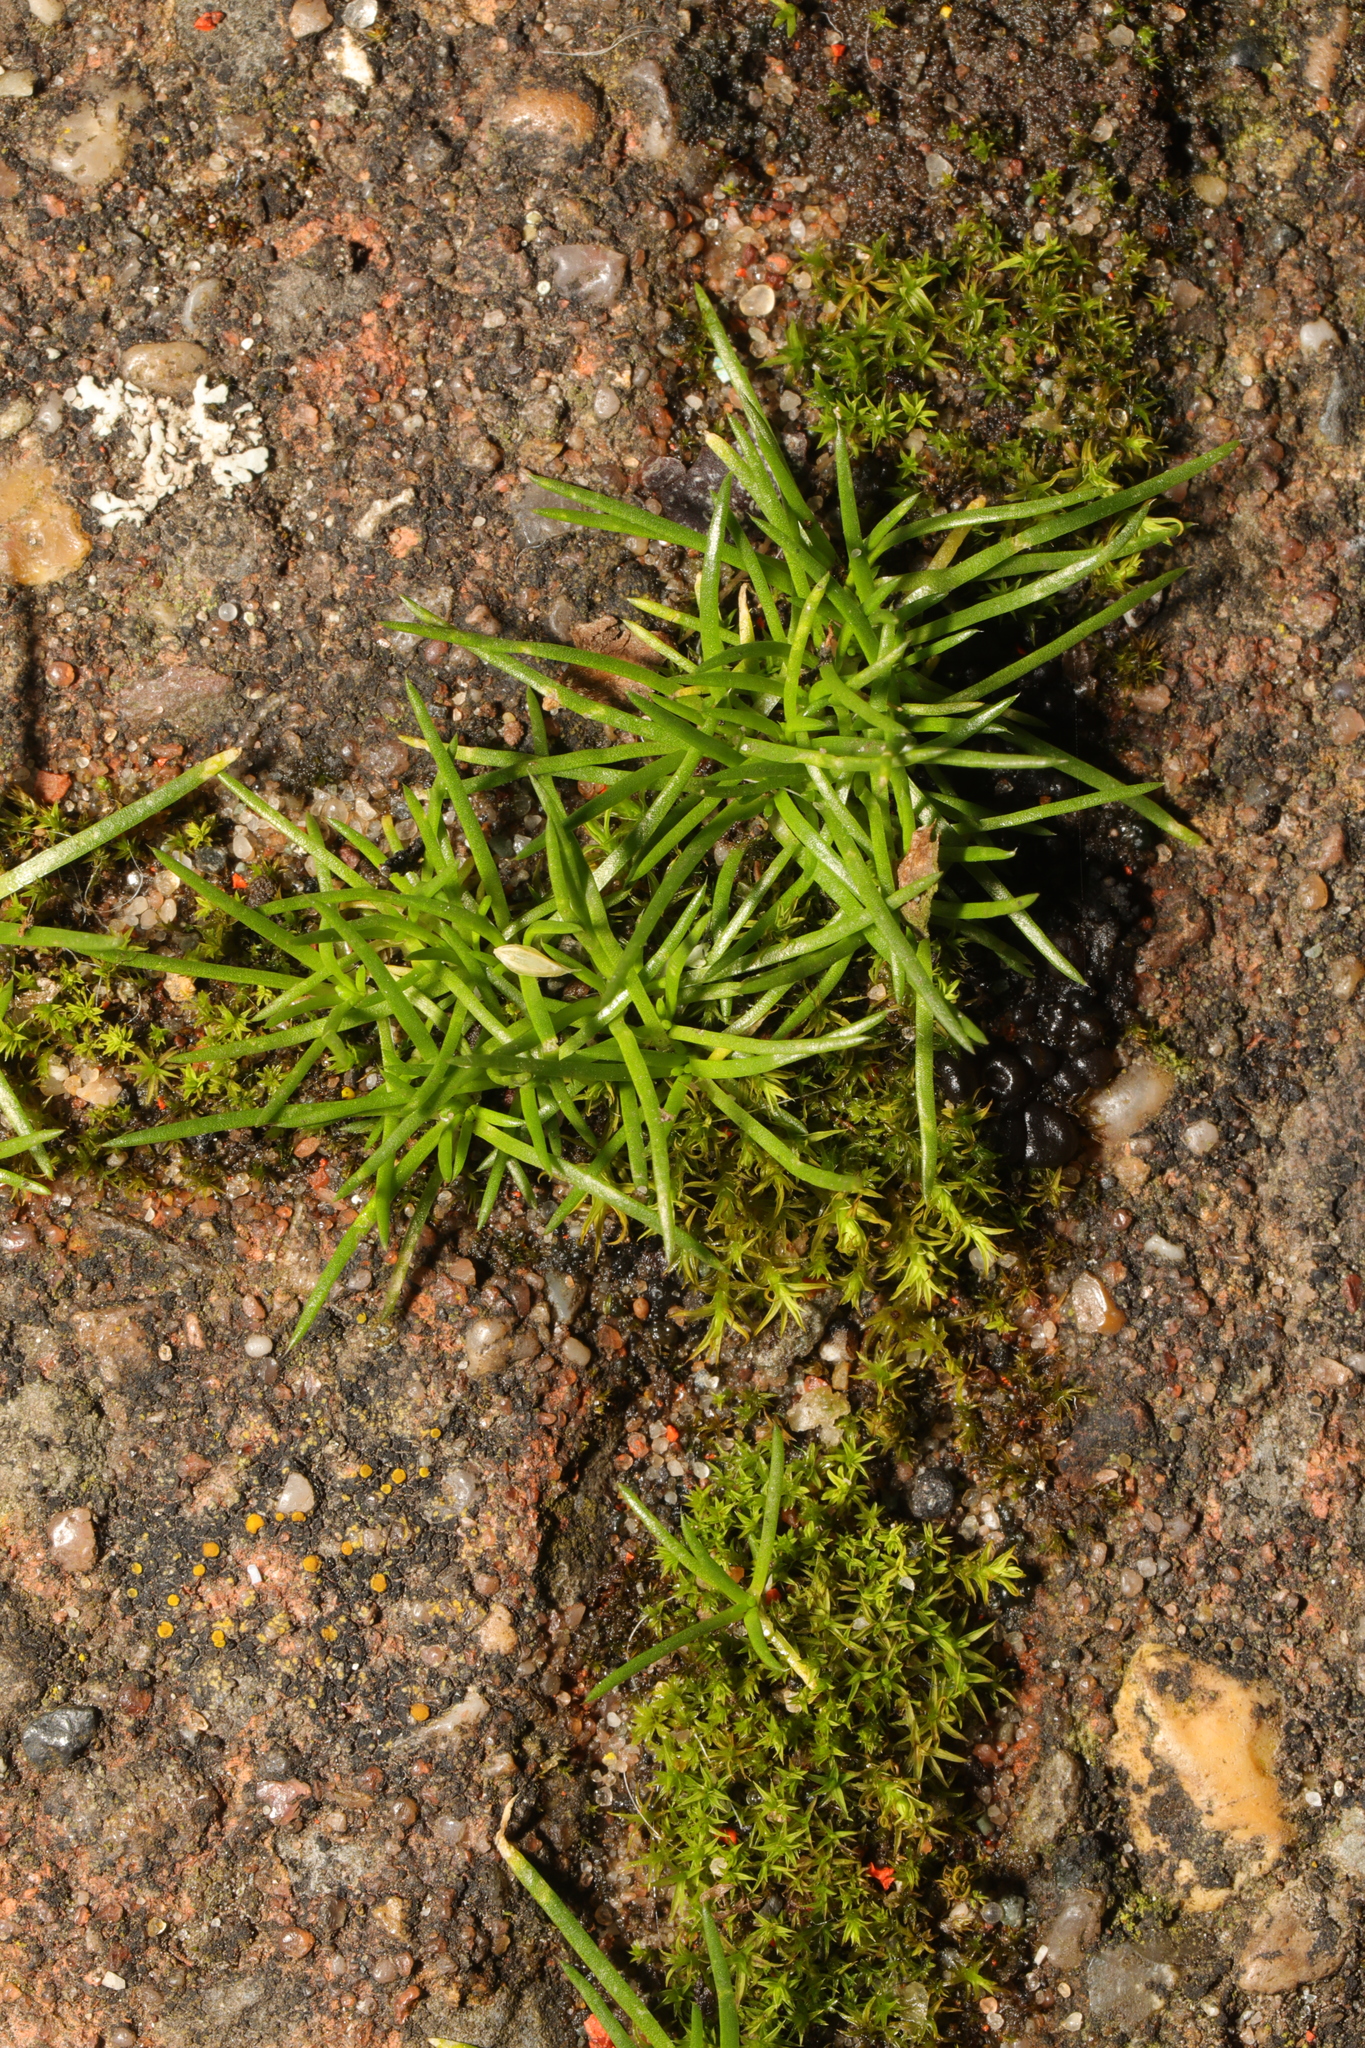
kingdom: Plantae
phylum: Tracheophyta
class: Magnoliopsida
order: Caryophyllales
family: Caryophyllaceae
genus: Sagina
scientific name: Sagina procumbens
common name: Procumbent pearlwort
